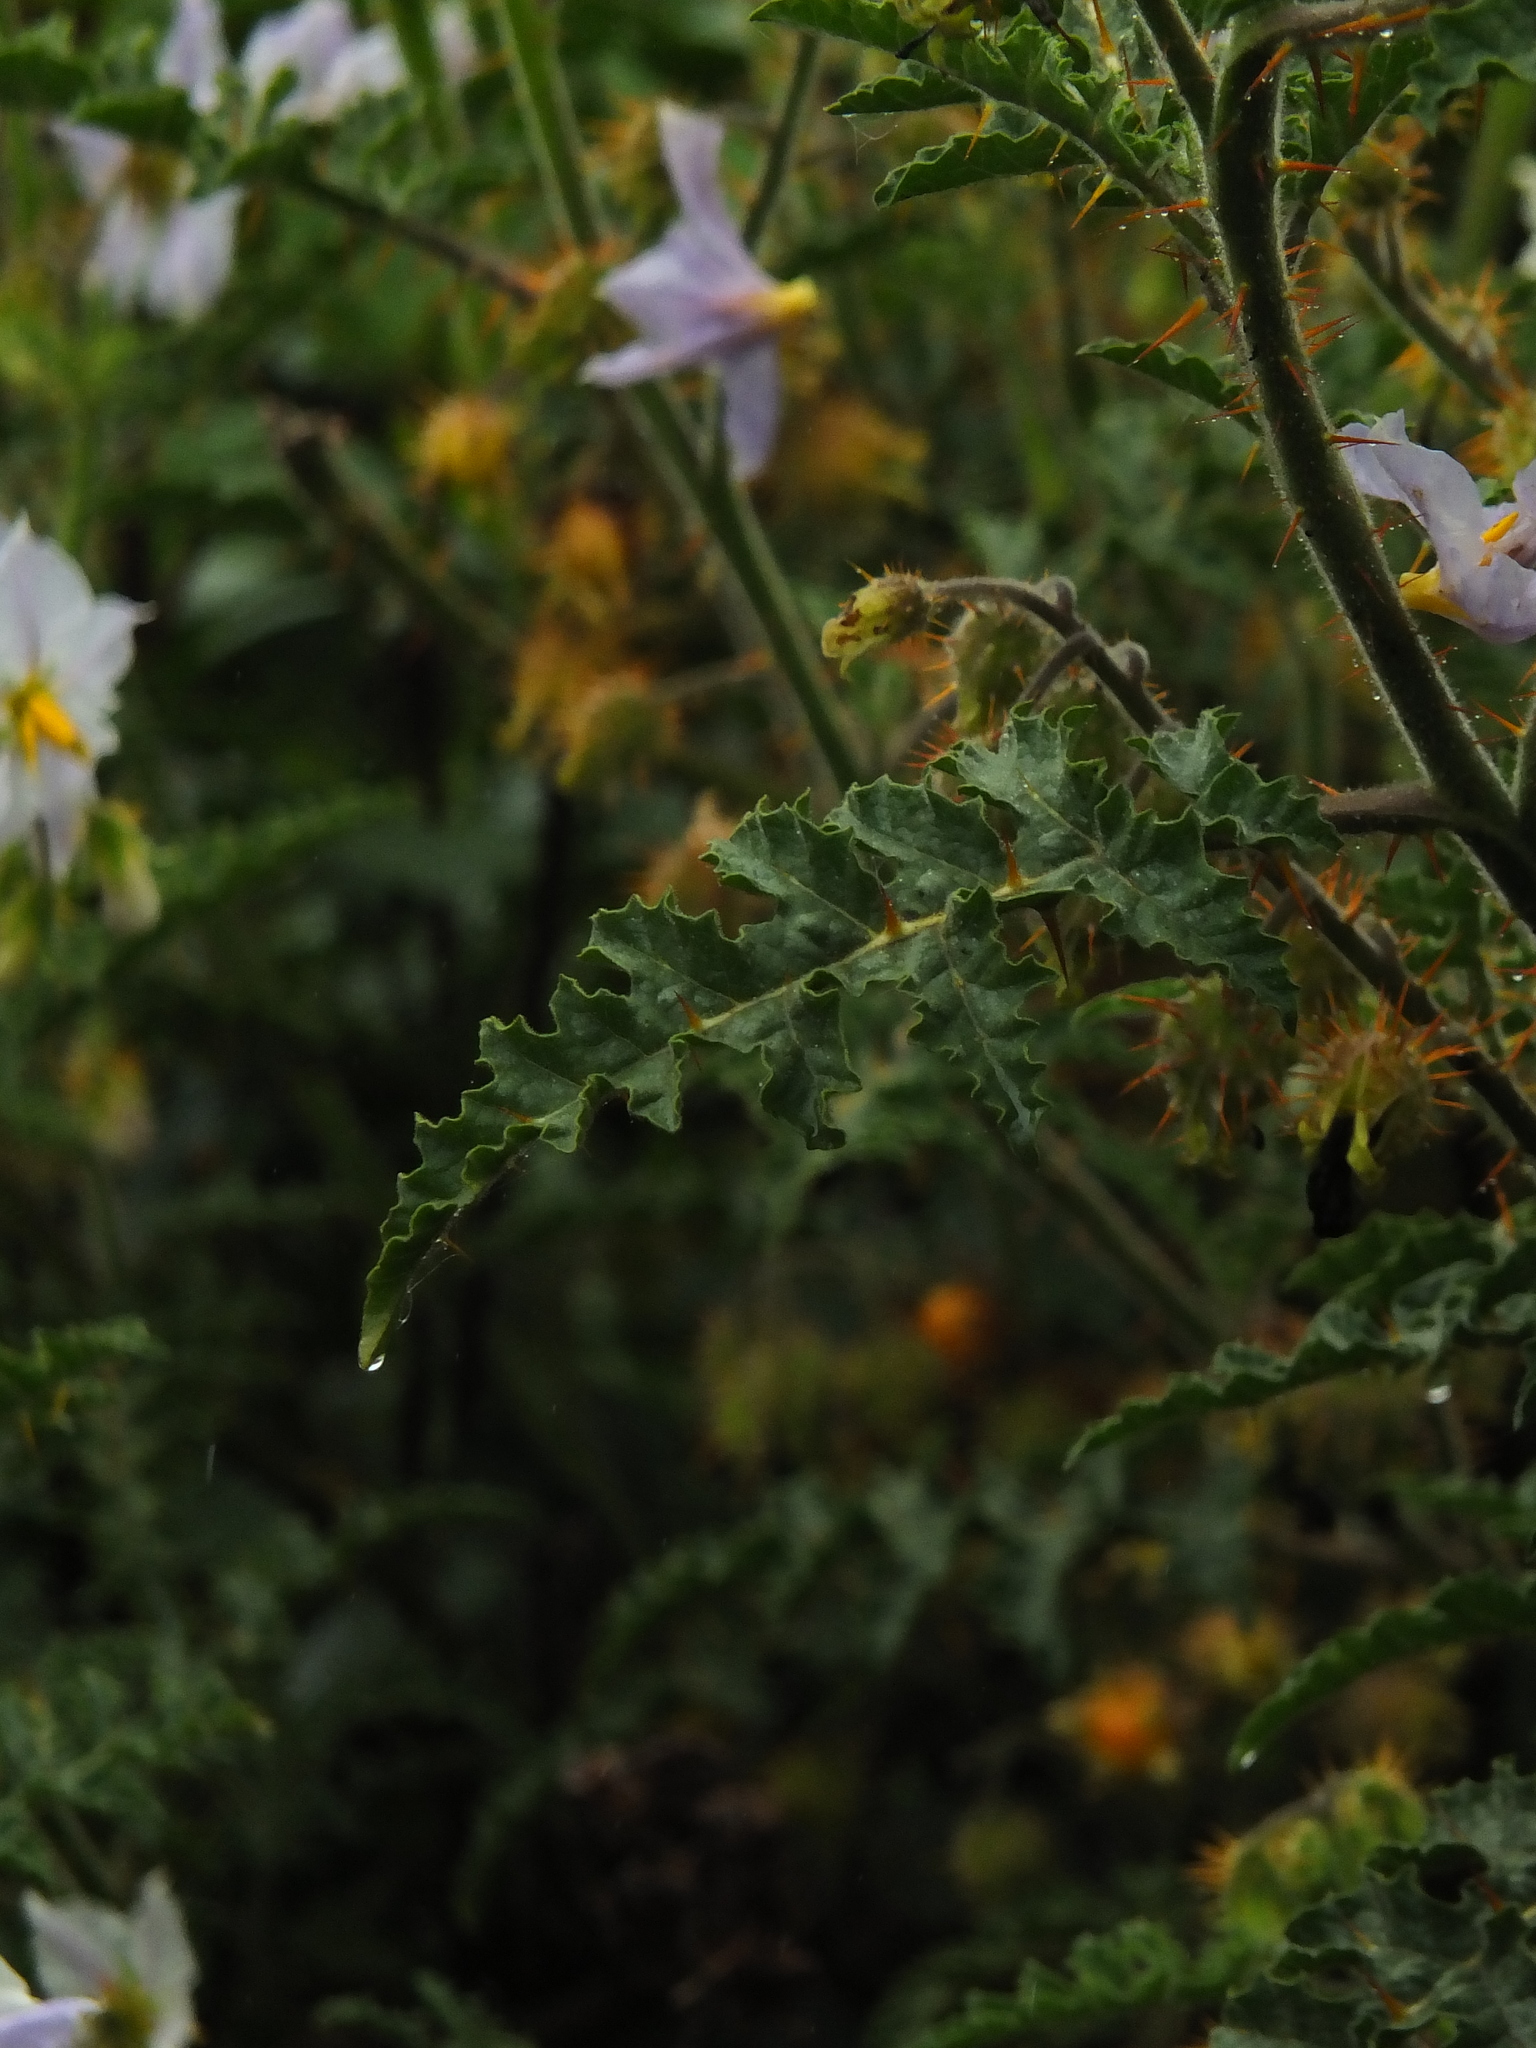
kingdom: Plantae
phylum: Tracheophyta
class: Magnoliopsida
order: Solanales
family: Solanaceae
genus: Solanum
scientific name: Solanum sisymbriifolium
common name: Red buffalo-bur
